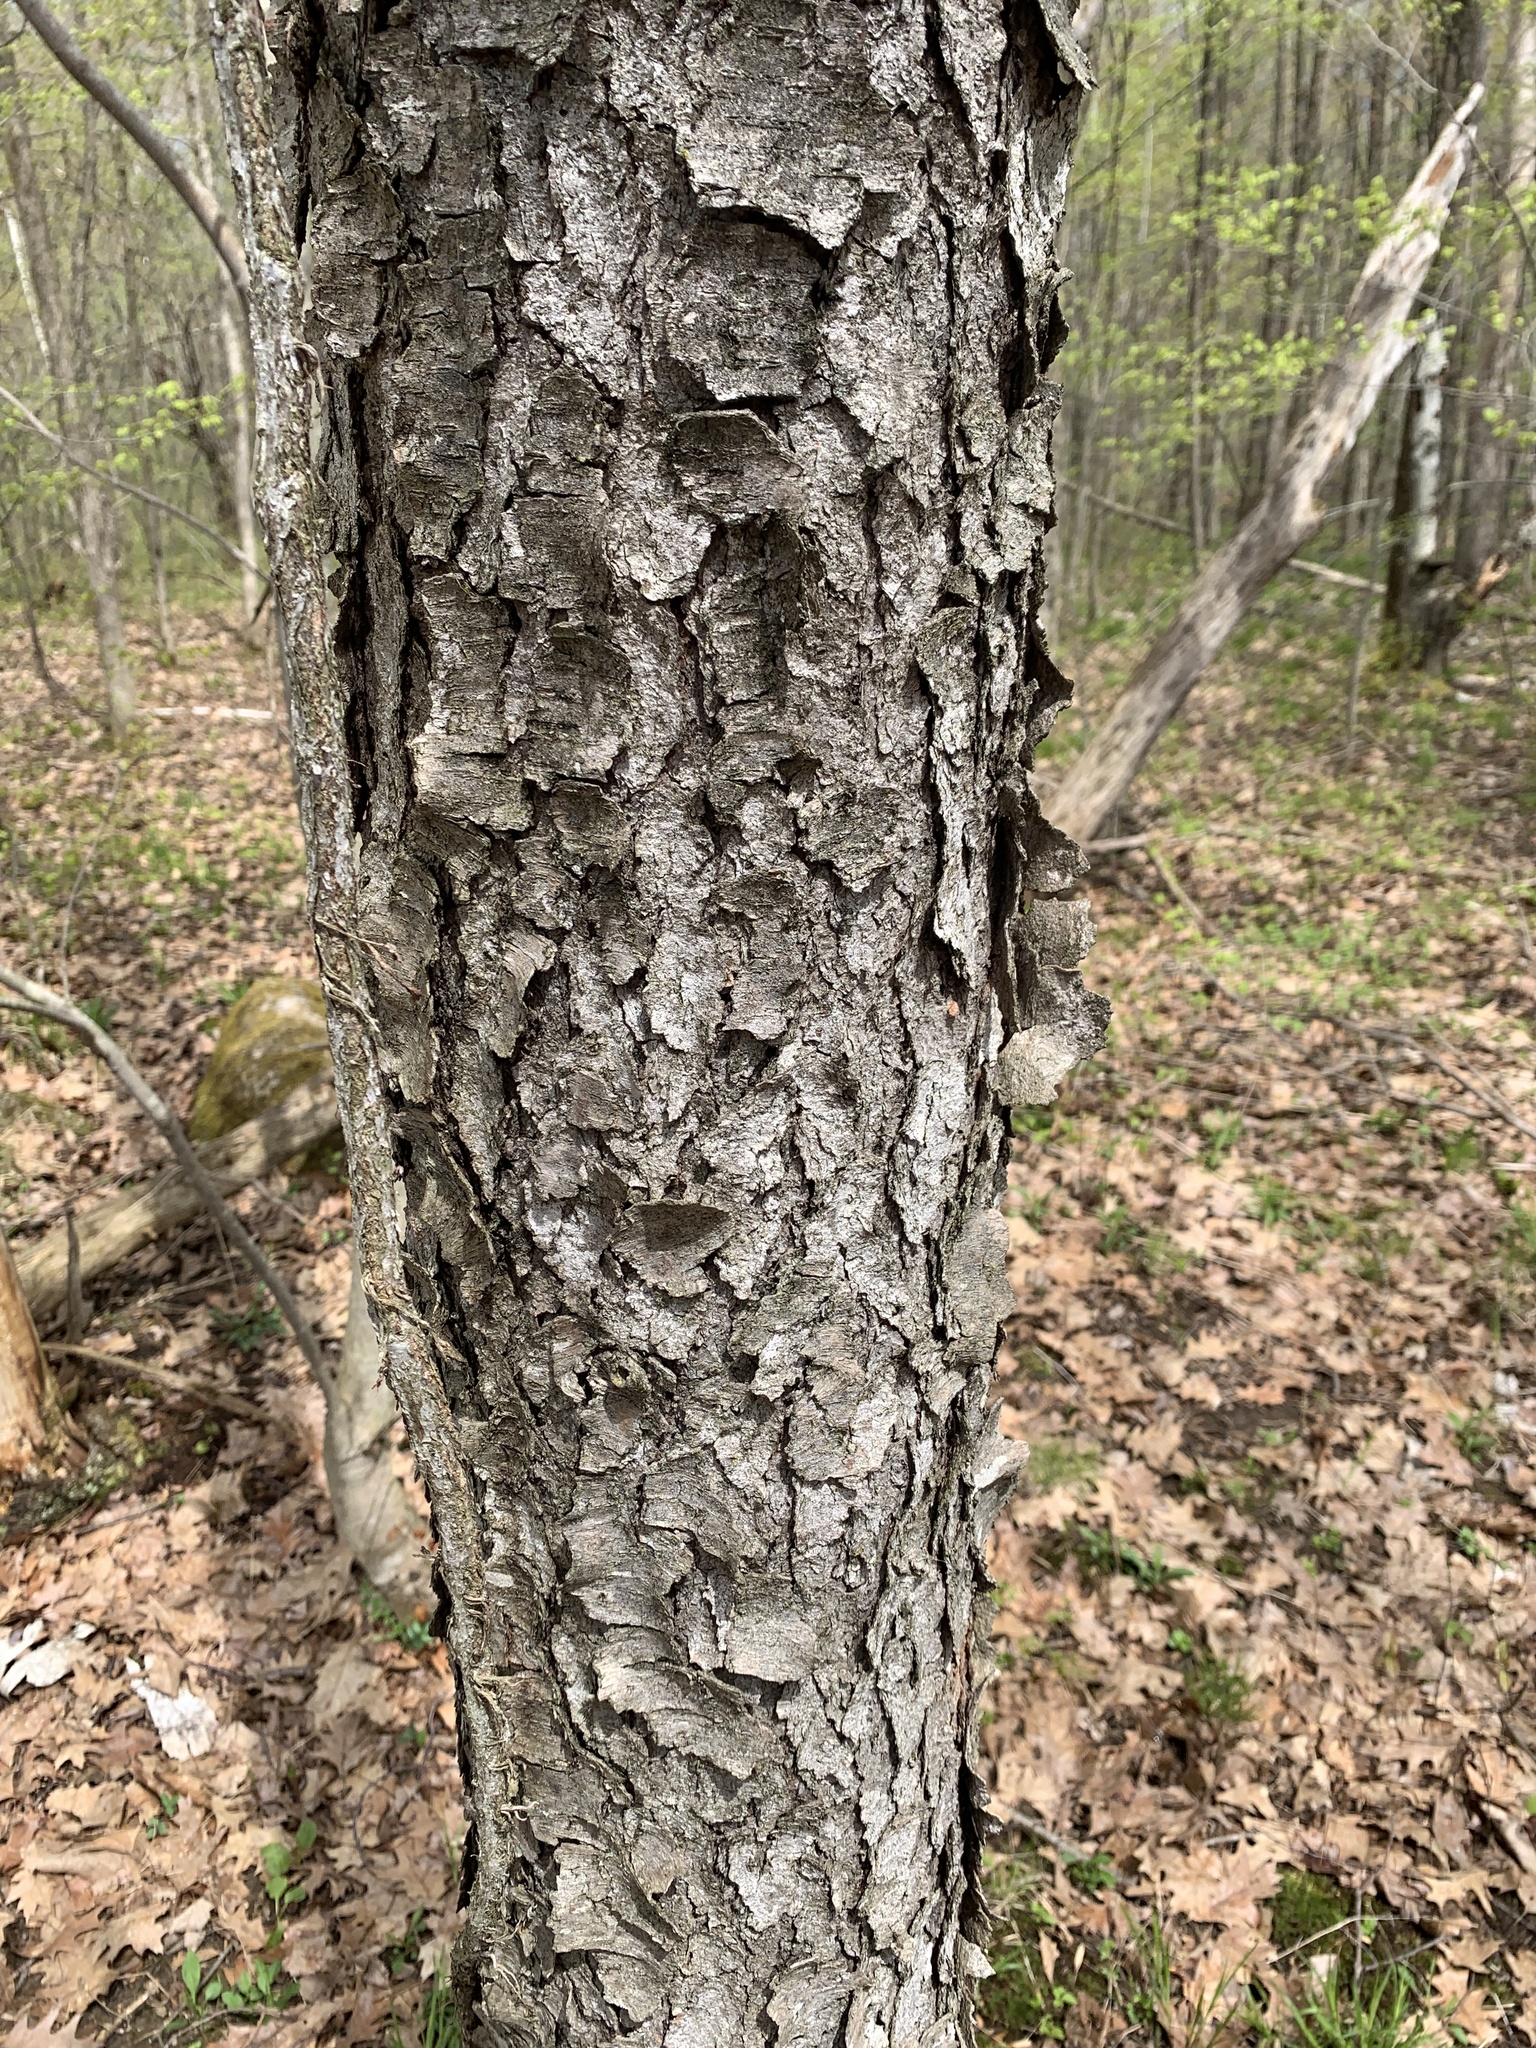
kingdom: Plantae
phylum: Tracheophyta
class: Magnoliopsida
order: Rosales
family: Rosaceae
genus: Prunus
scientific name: Prunus serotina
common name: Black cherry
